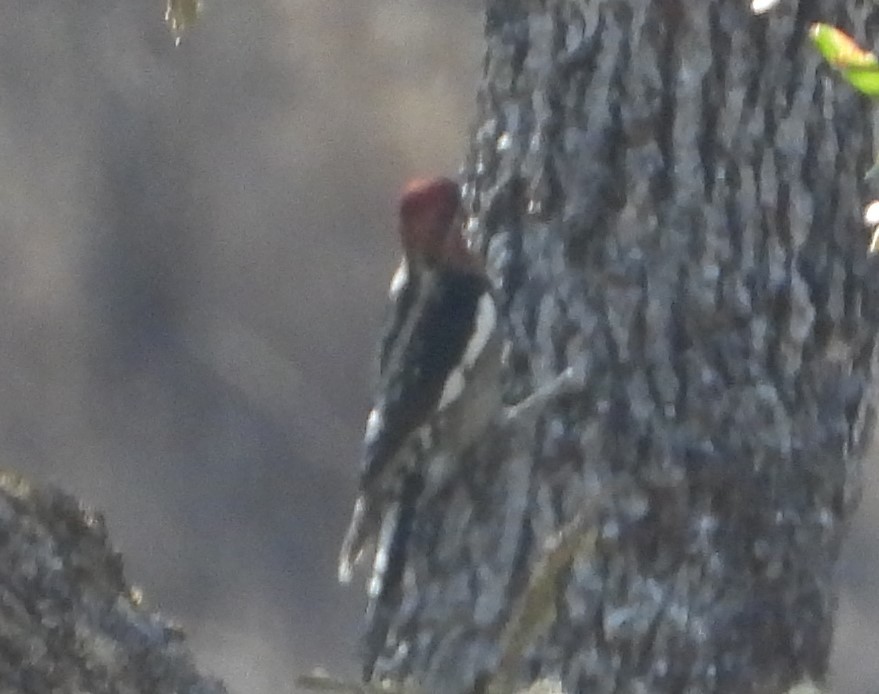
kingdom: Animalia
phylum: Chordata
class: Aves
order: Piciformes
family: Picidae
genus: Sphyrapicus
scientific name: Sphyrapicus ruber
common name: Red-breasted sapsucker
